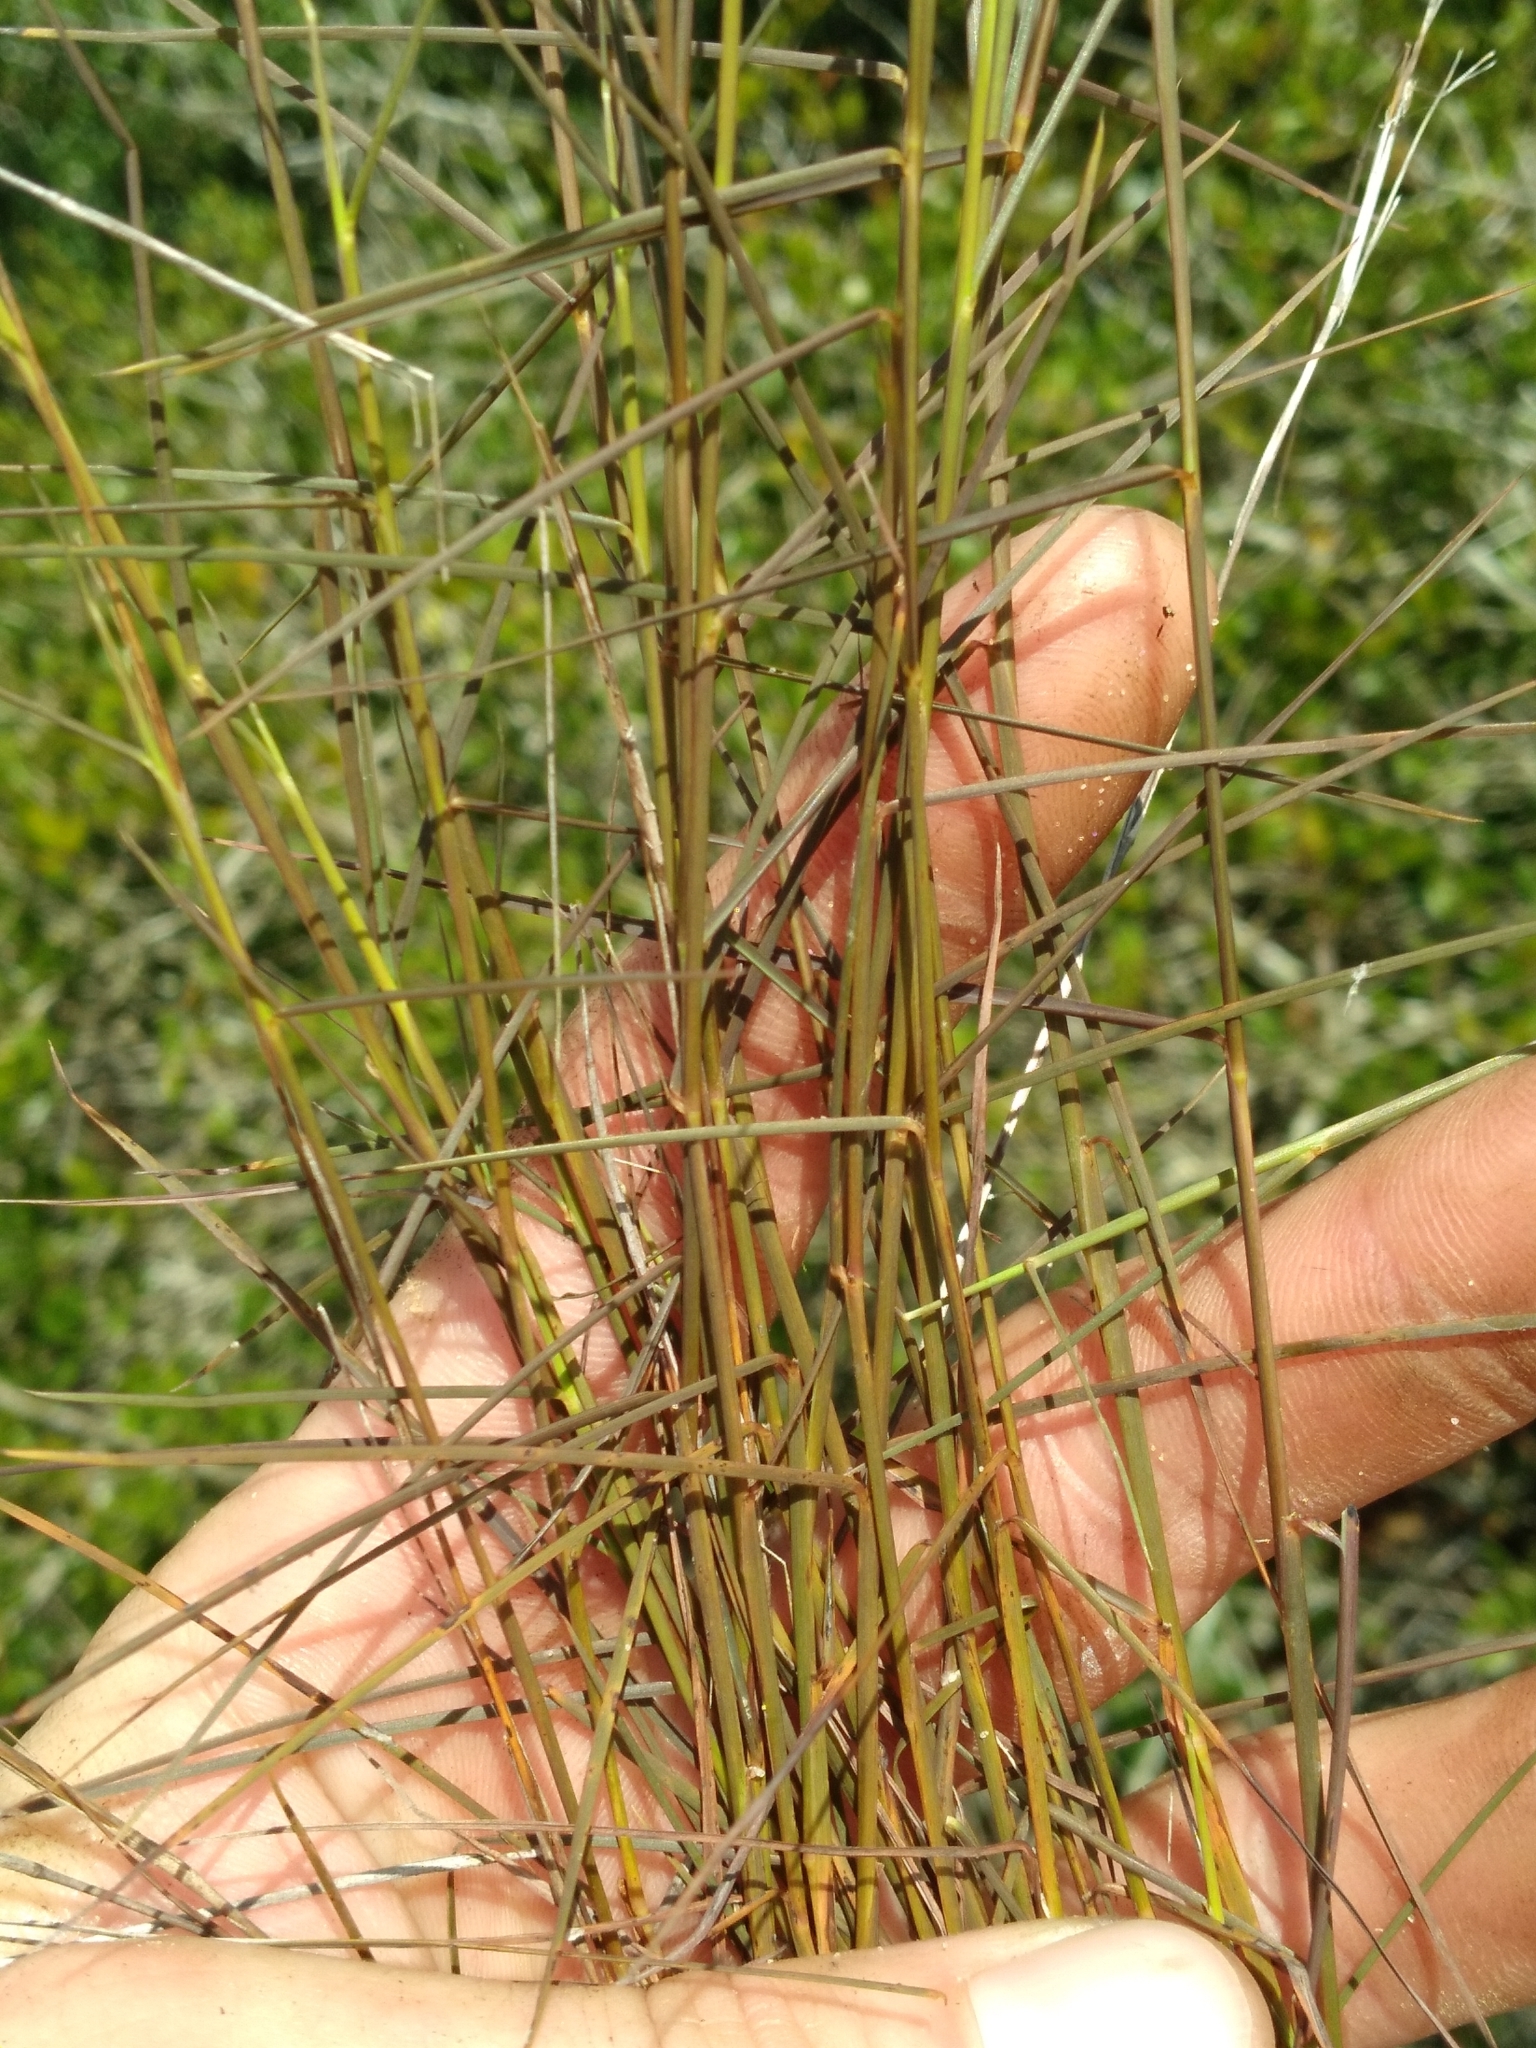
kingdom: Plantae
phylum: Tracheophyta
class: Liliopsida
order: Poales
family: Poaceae
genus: Schizachyrium
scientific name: Schizachyrium niveum
